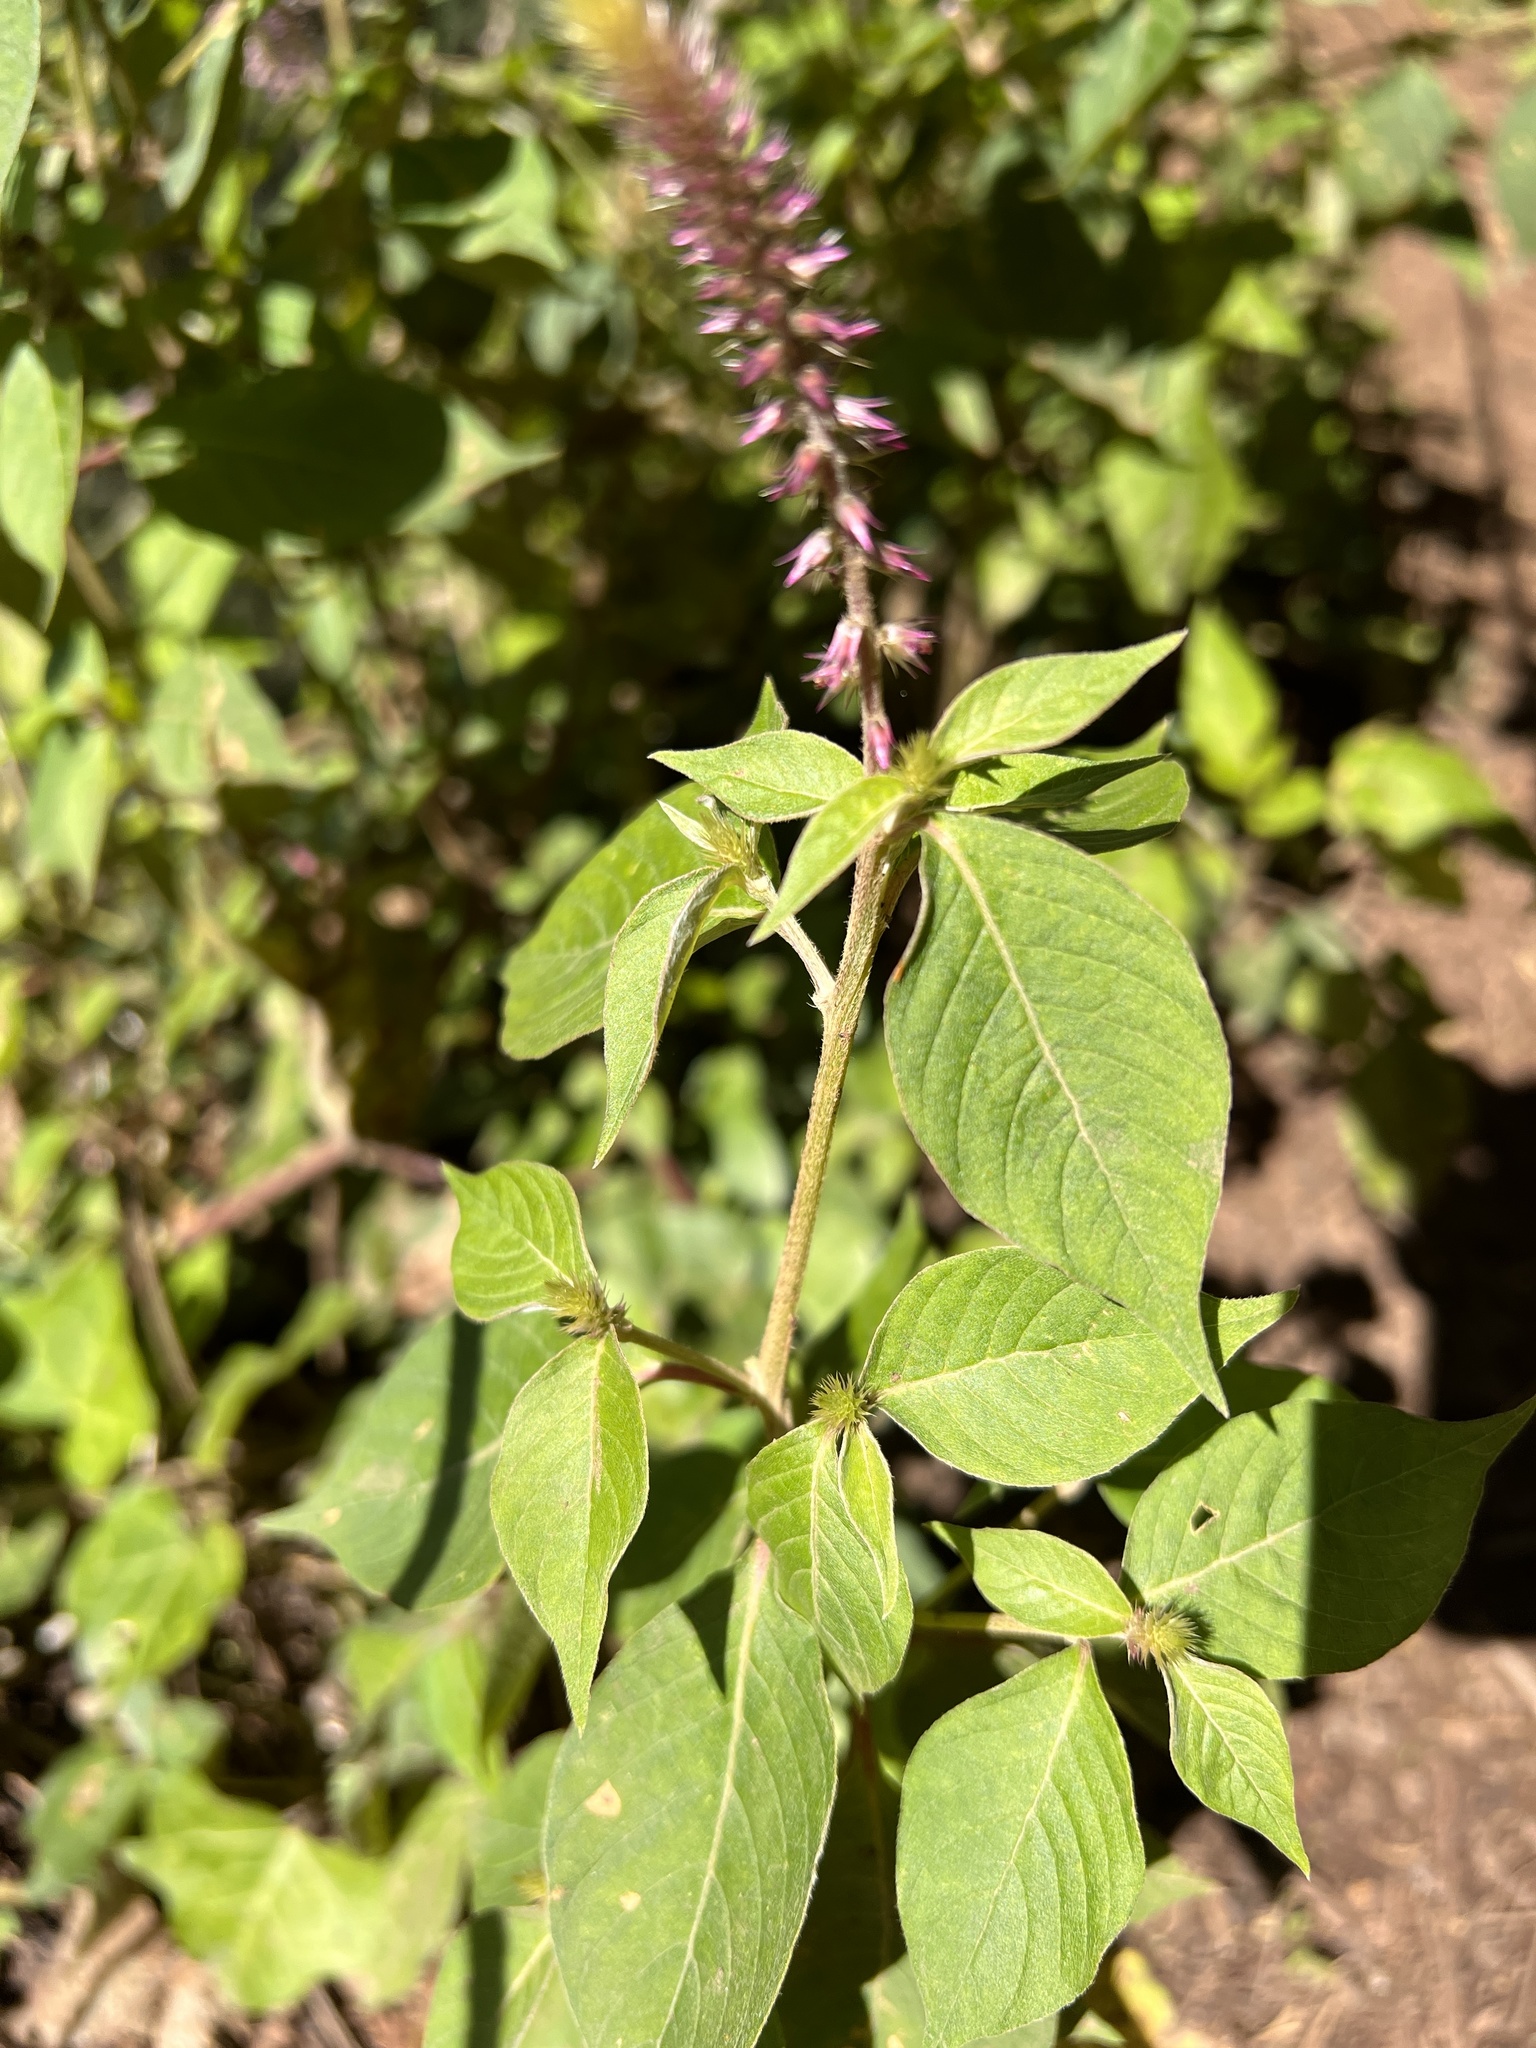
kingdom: Plantae
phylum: Tracheophyta
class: Magnoliopsida
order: Caryophyllales
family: Amaranthaceae
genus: Achyranthes
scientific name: Achyranthes aspera
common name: Devil's horsewhip
